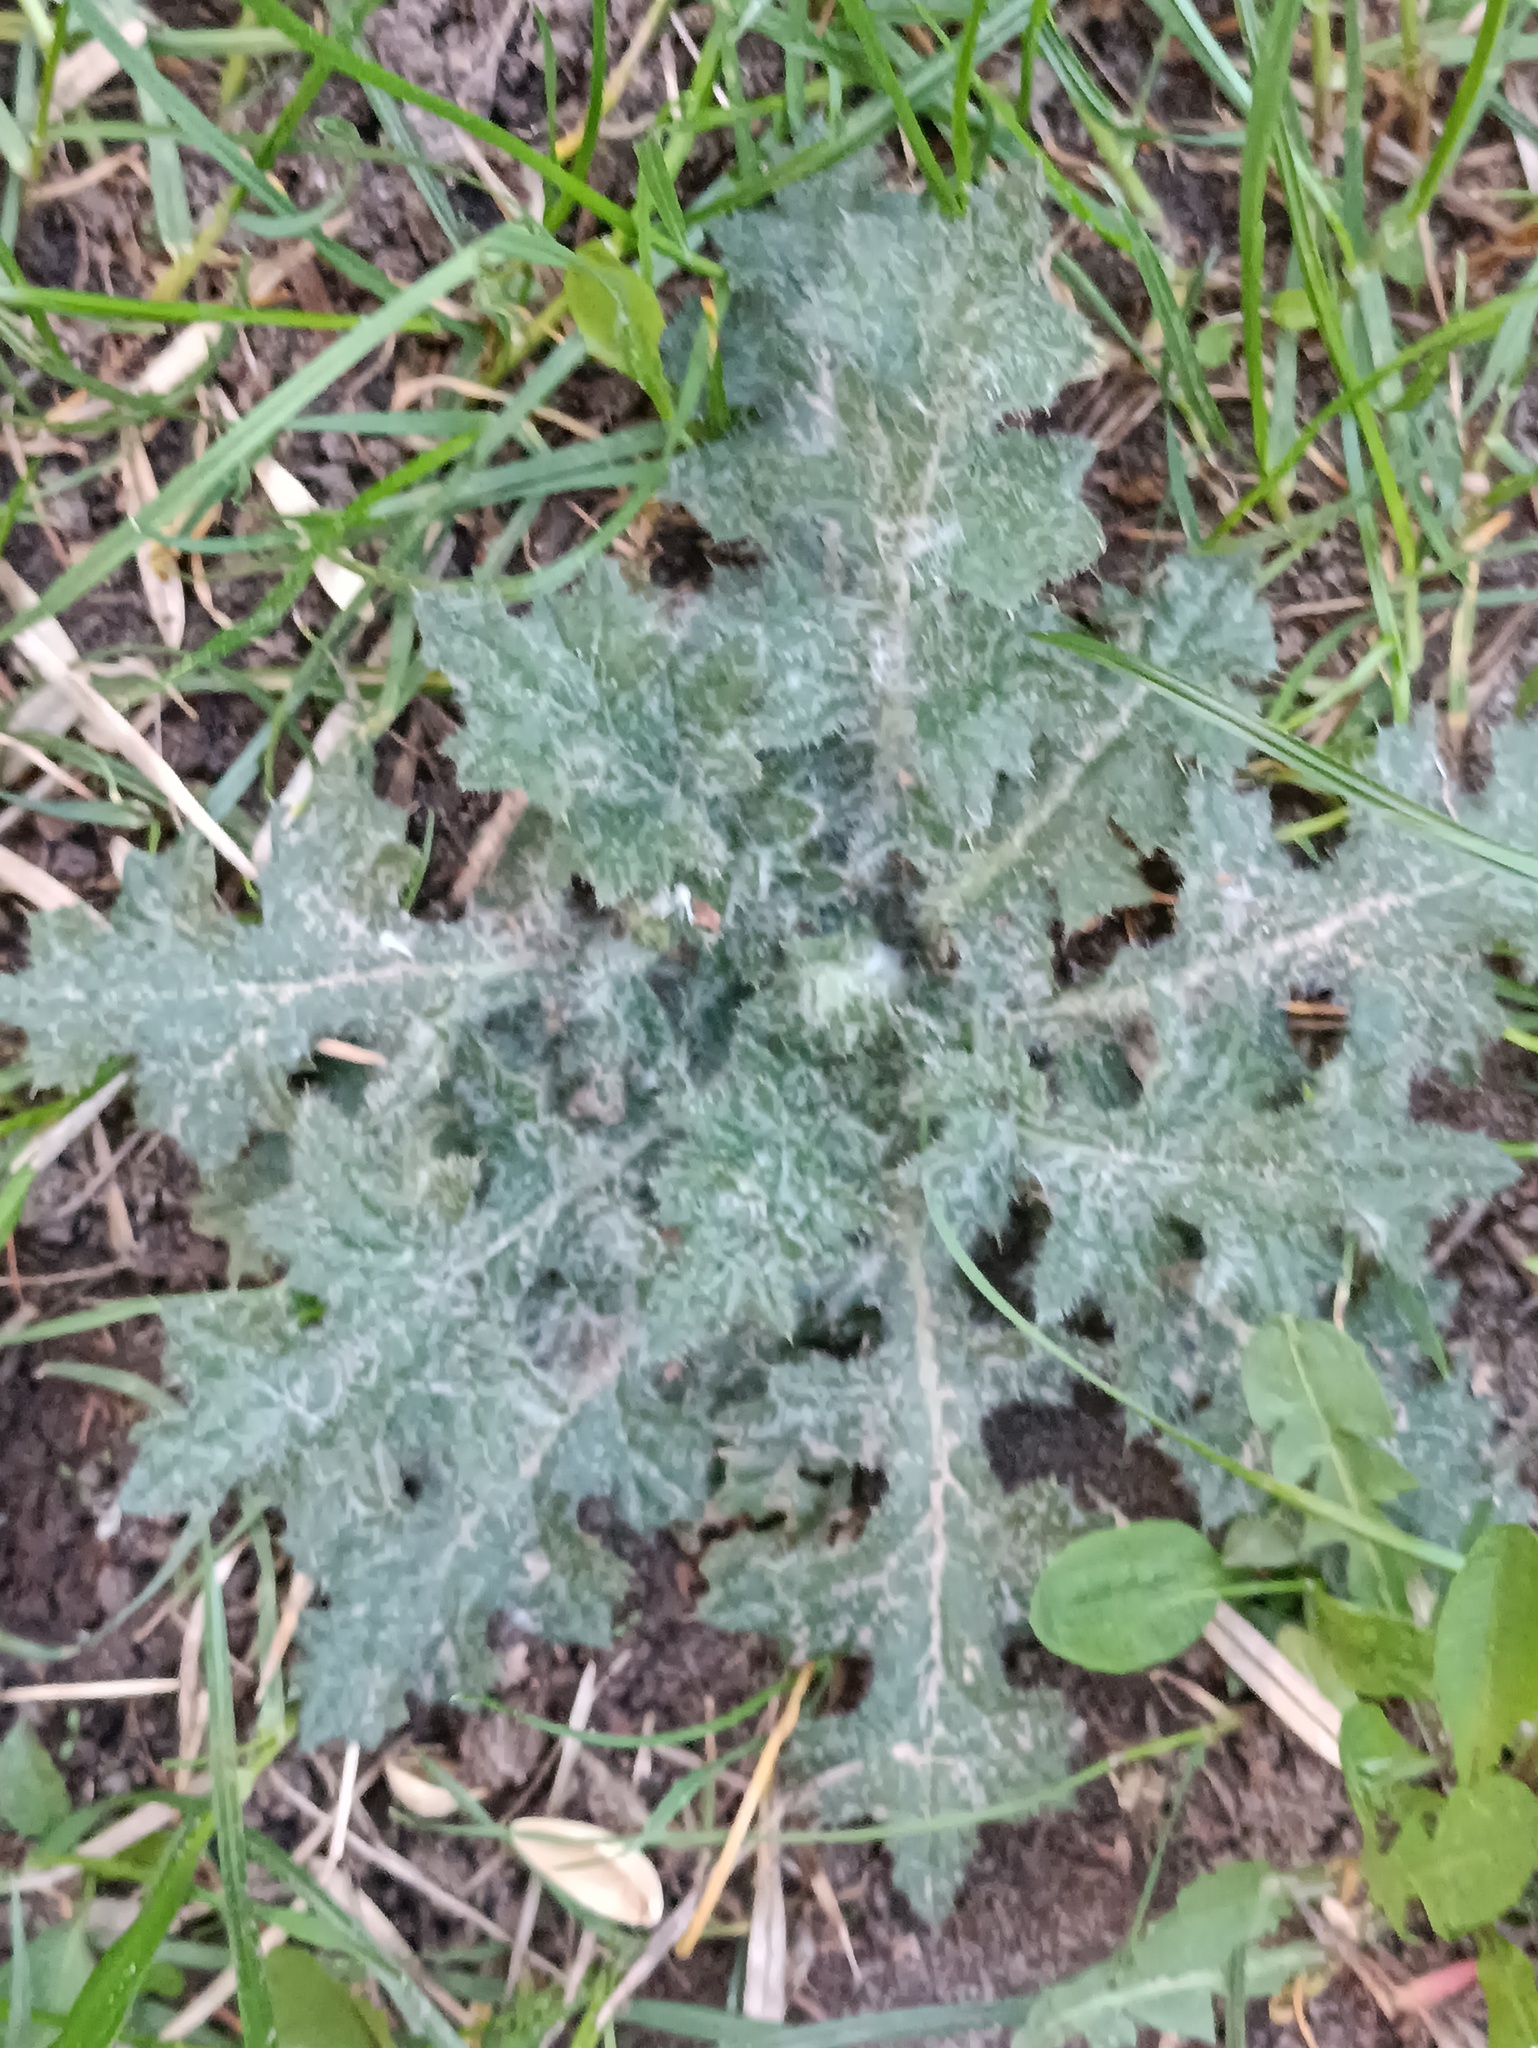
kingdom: Plantae
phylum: Tracheophyta
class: Magnoliopsida
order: Asterales
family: Asteraceae
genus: Cirsium
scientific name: Cirsium vulgare
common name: Bull thistle
